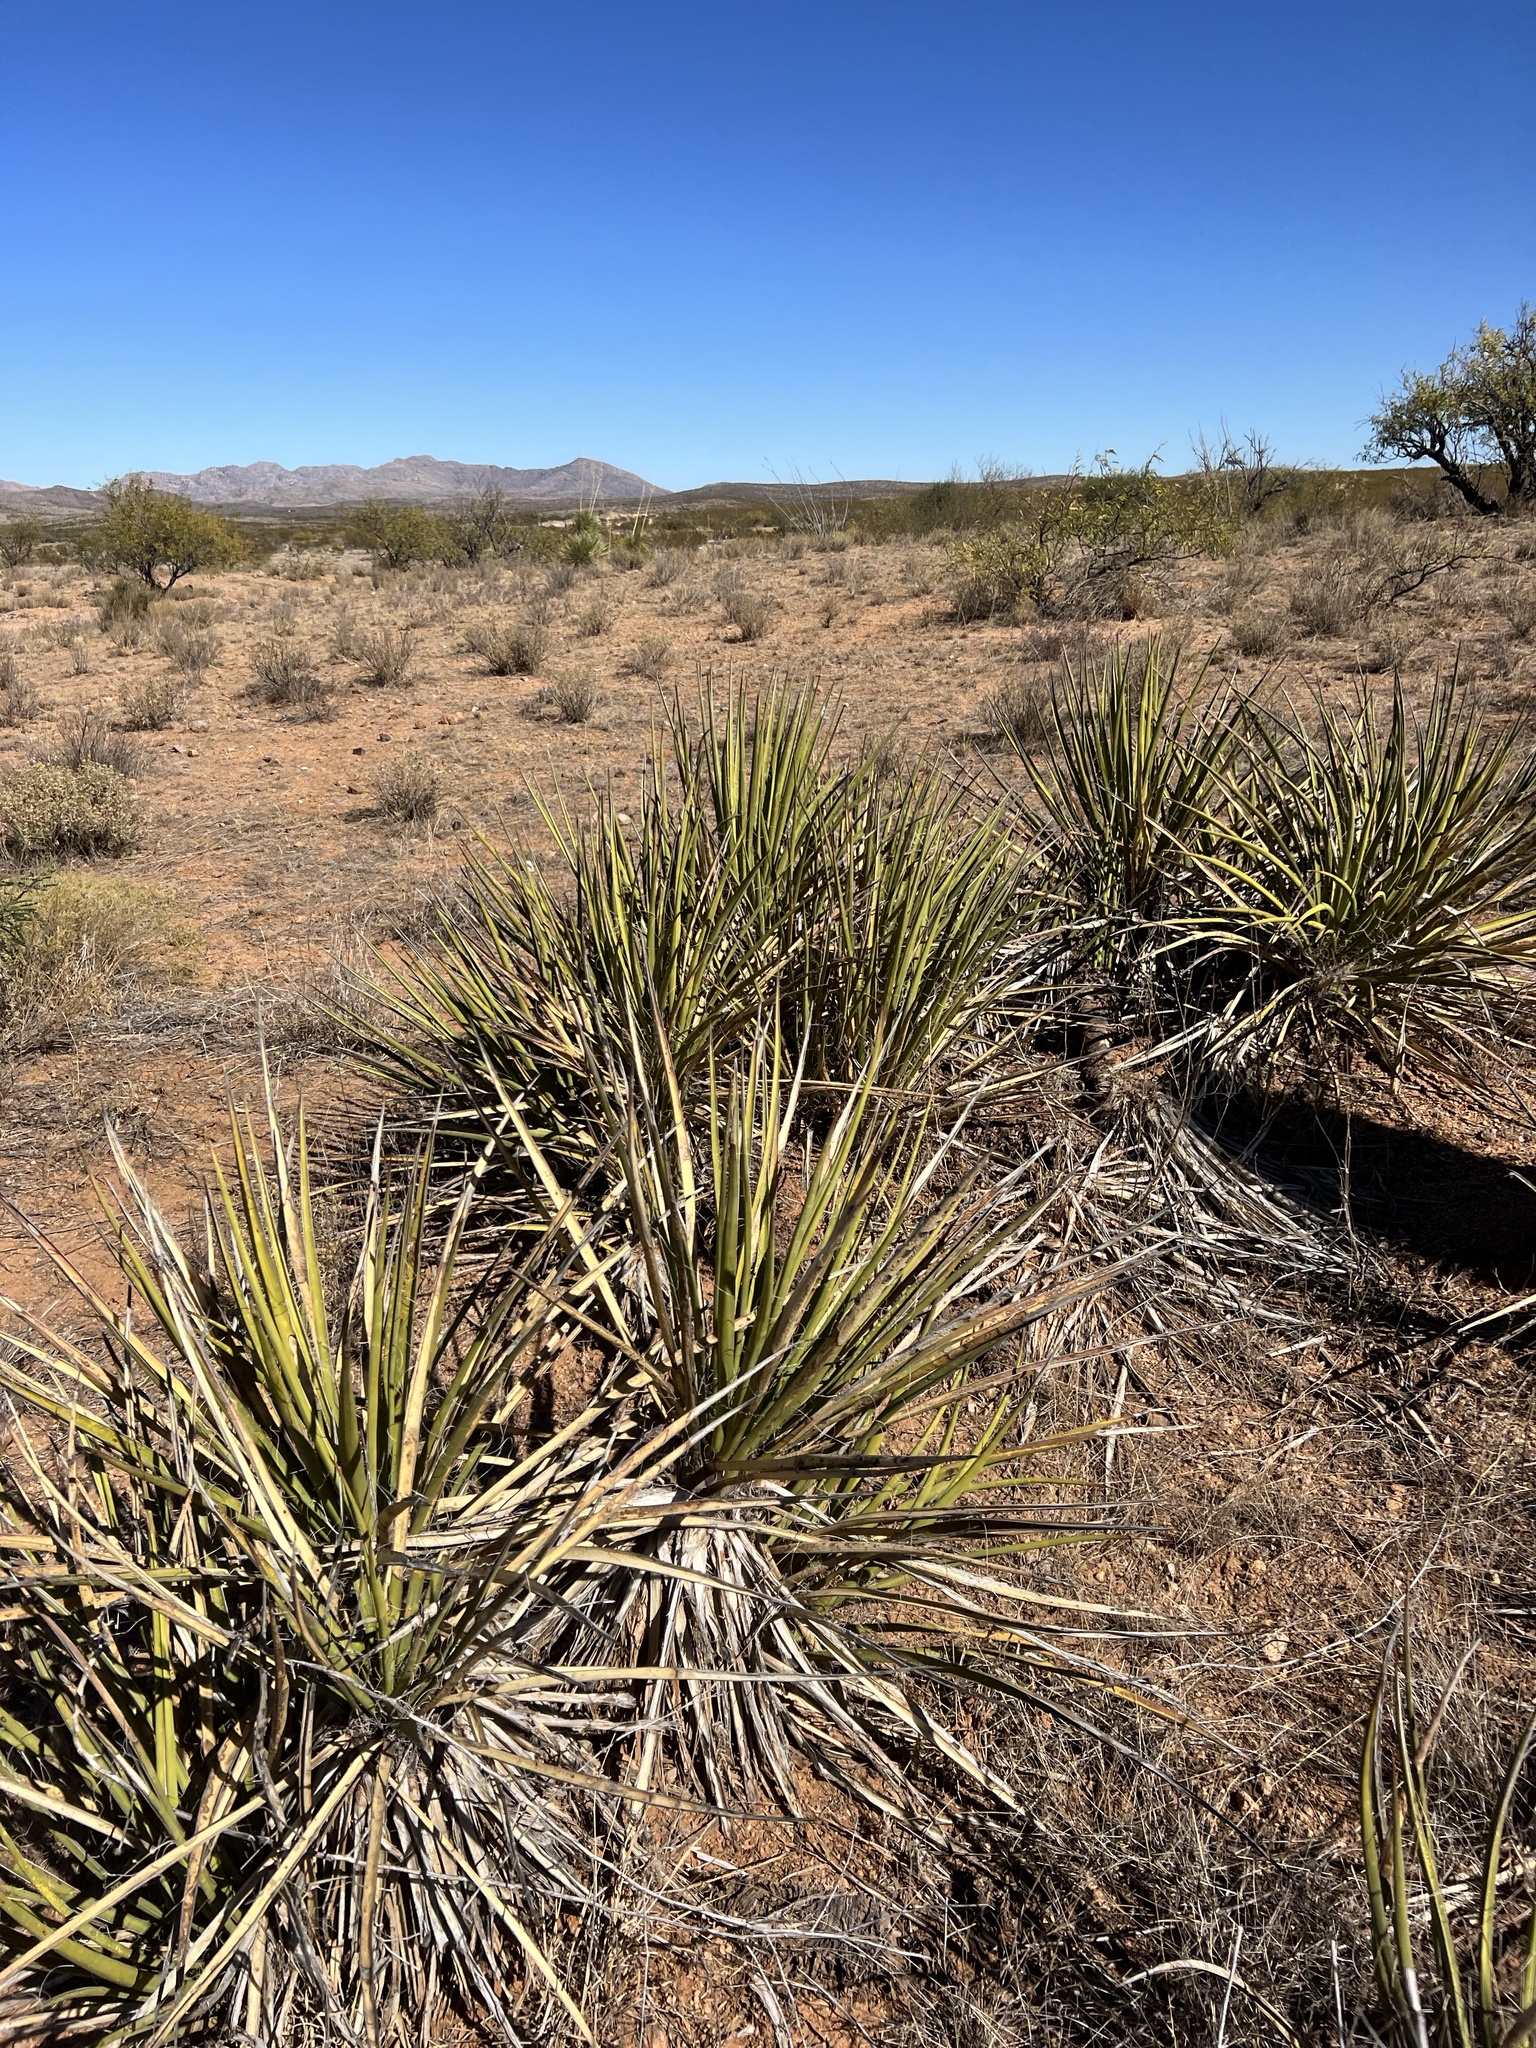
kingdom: Plantae
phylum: Tracheophyta
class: Liliopsida
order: Asparagales
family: Asparagaceae
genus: Yucca
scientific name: Yucca baccata
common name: Banana yucca
